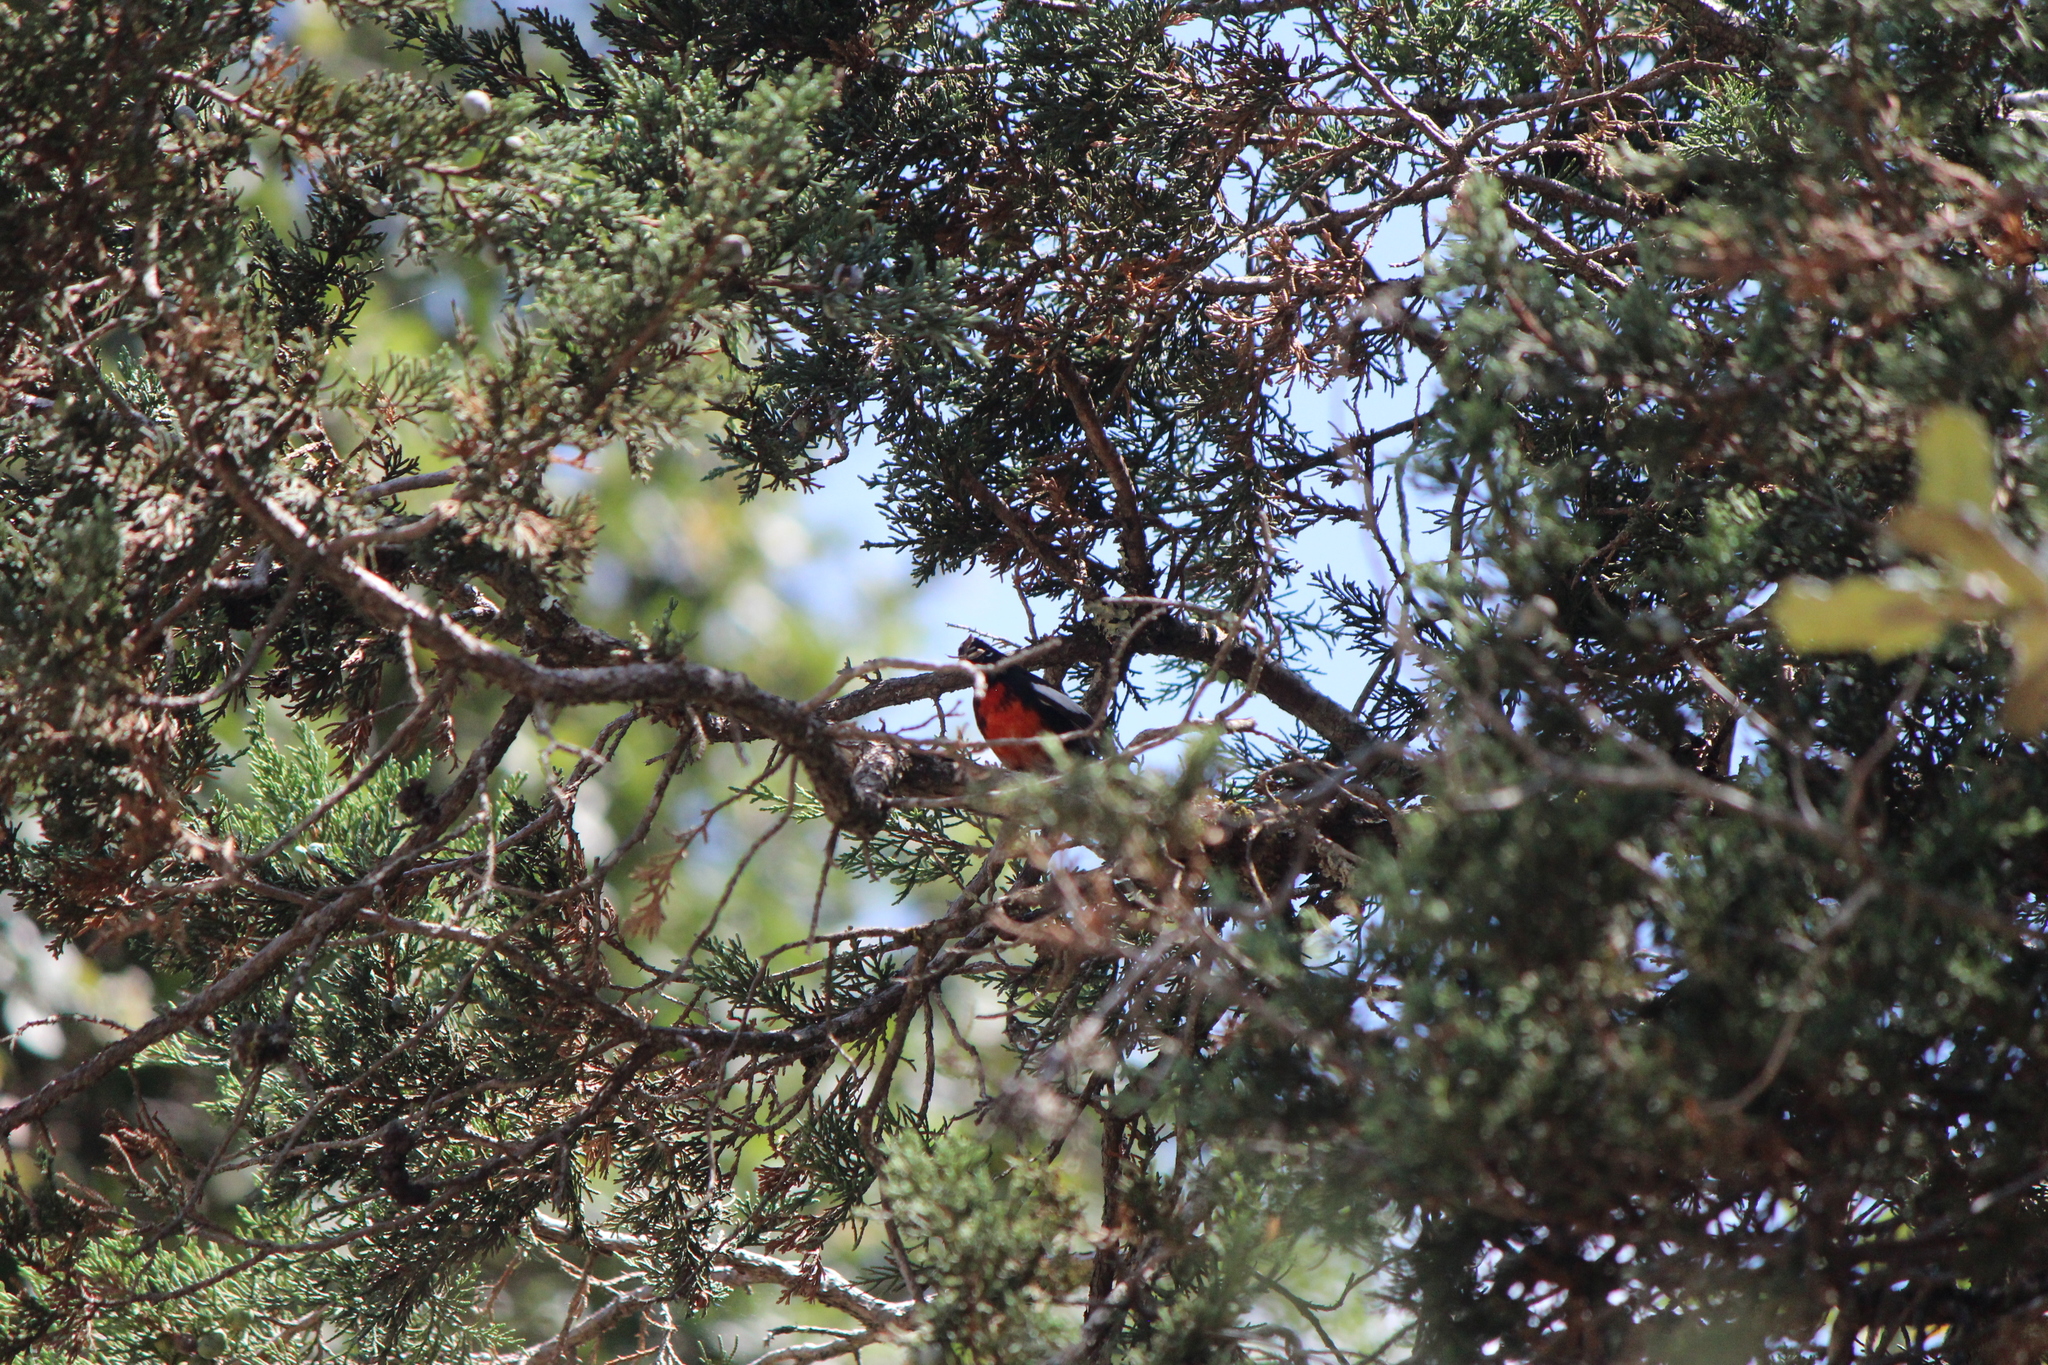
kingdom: Animalia
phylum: Chordata
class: Aves
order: Passeriformes
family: Parulidae
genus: Myioborus
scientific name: Myioborus pictus
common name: Painted whitestart
